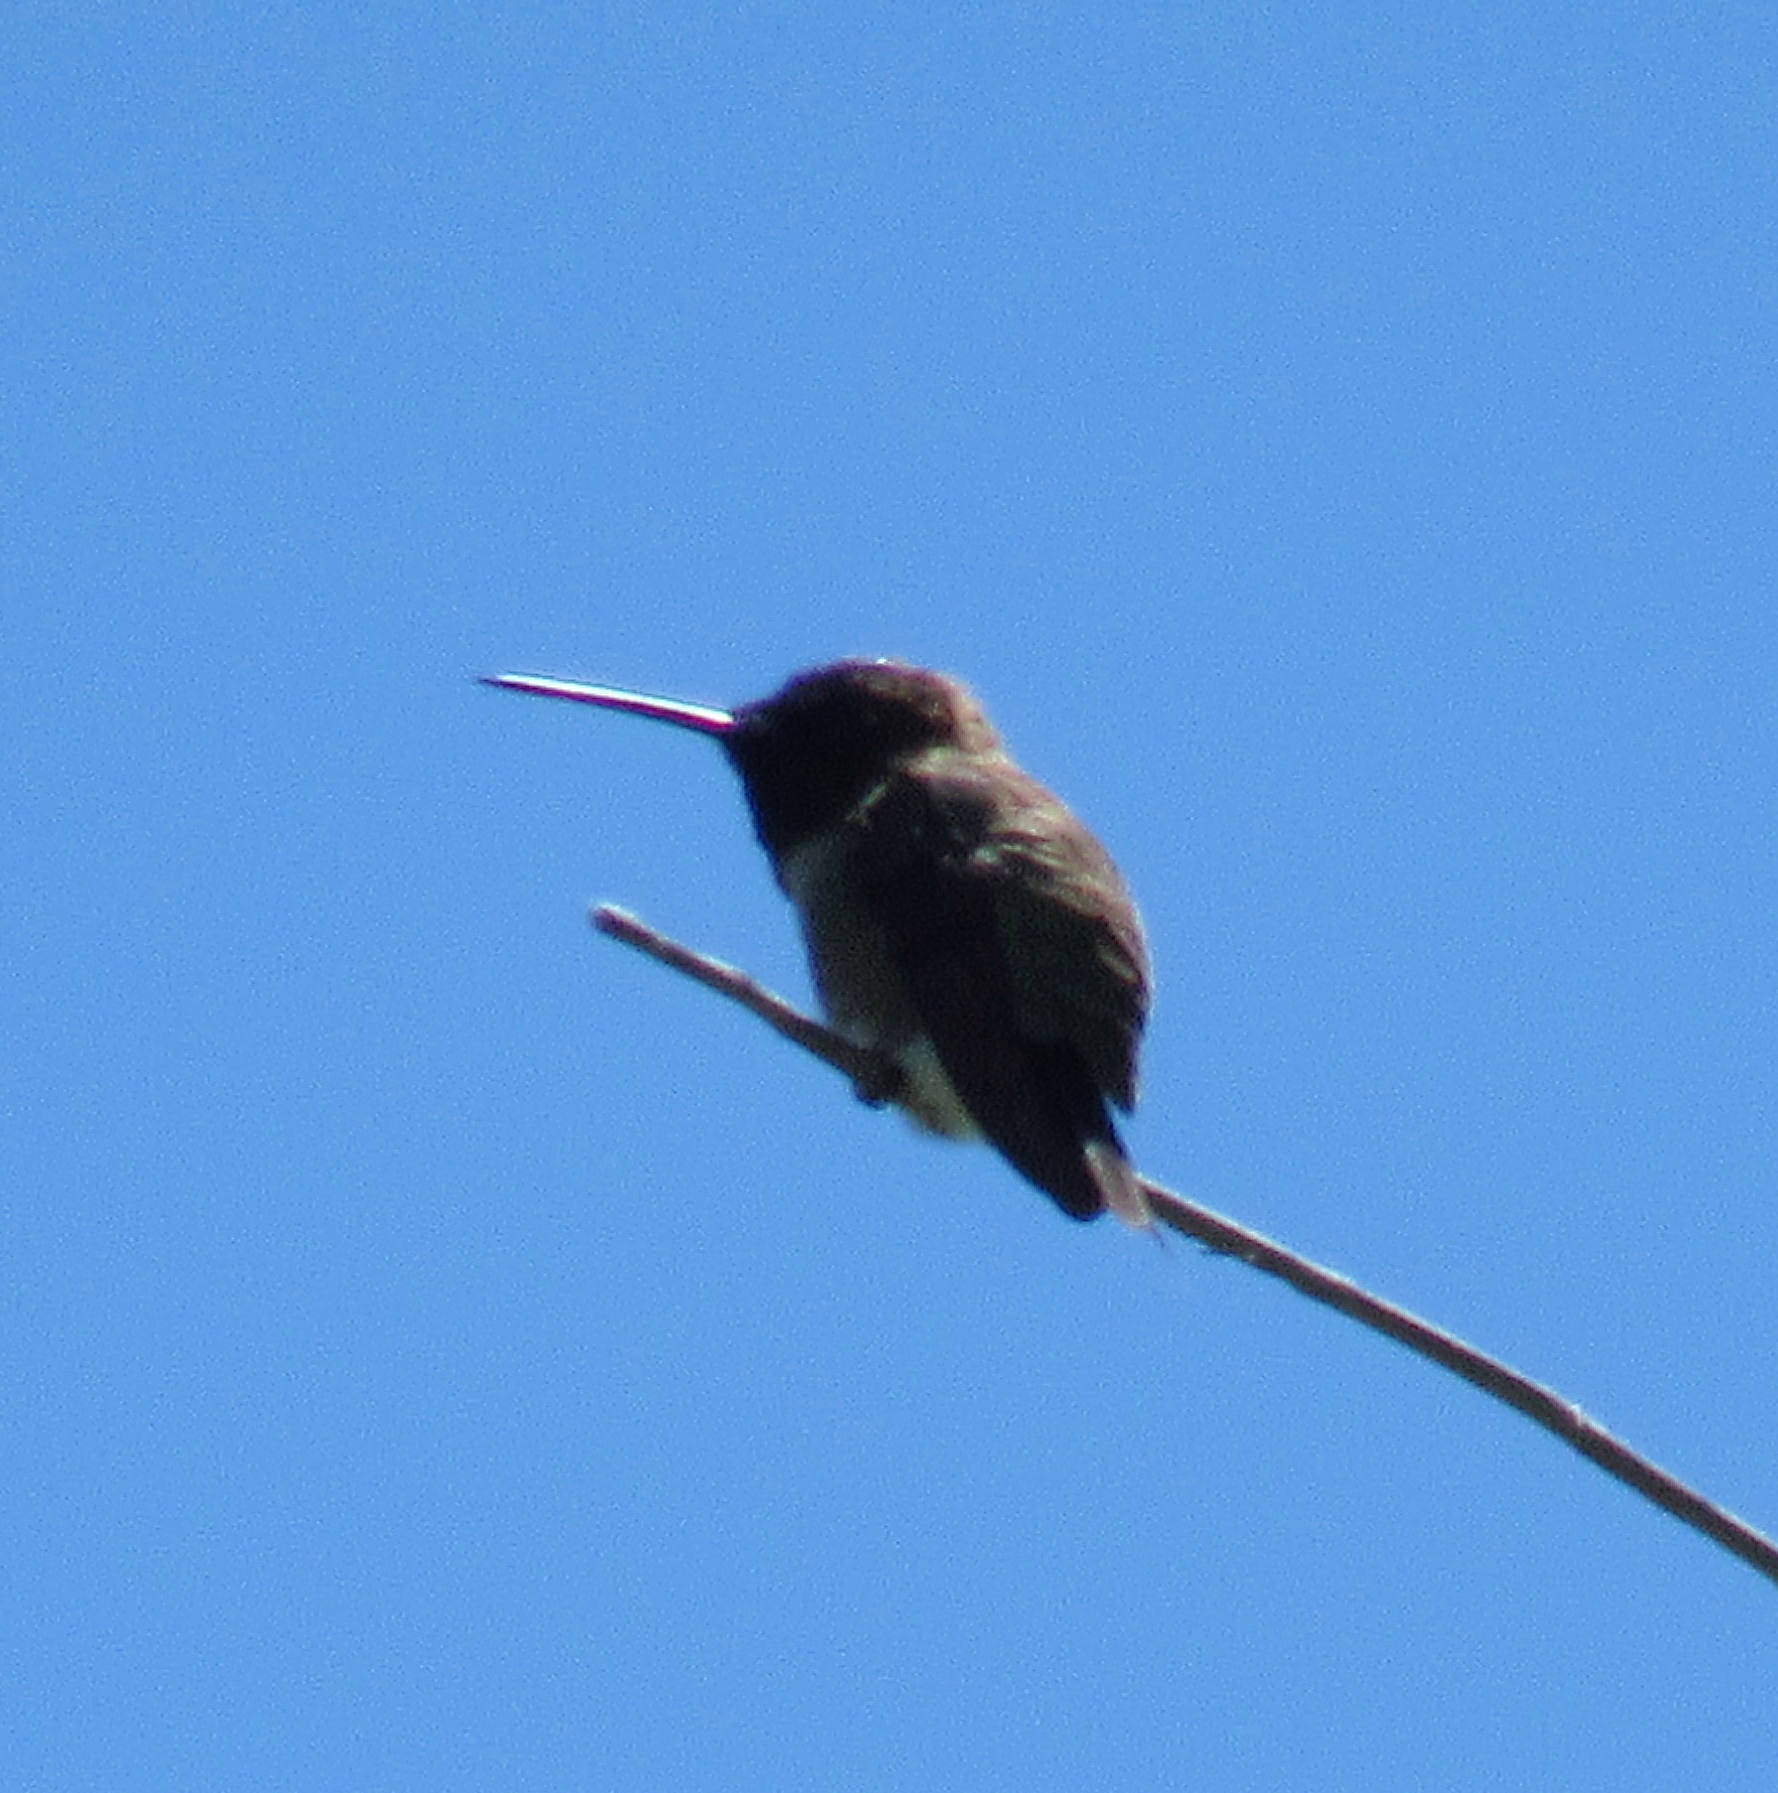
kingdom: Animalia
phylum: Chordata
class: Aves
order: Apodiformes
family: Trochilidae
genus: Archilochus
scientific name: Archilochus alexandri
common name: Black-chinned hummingbird
